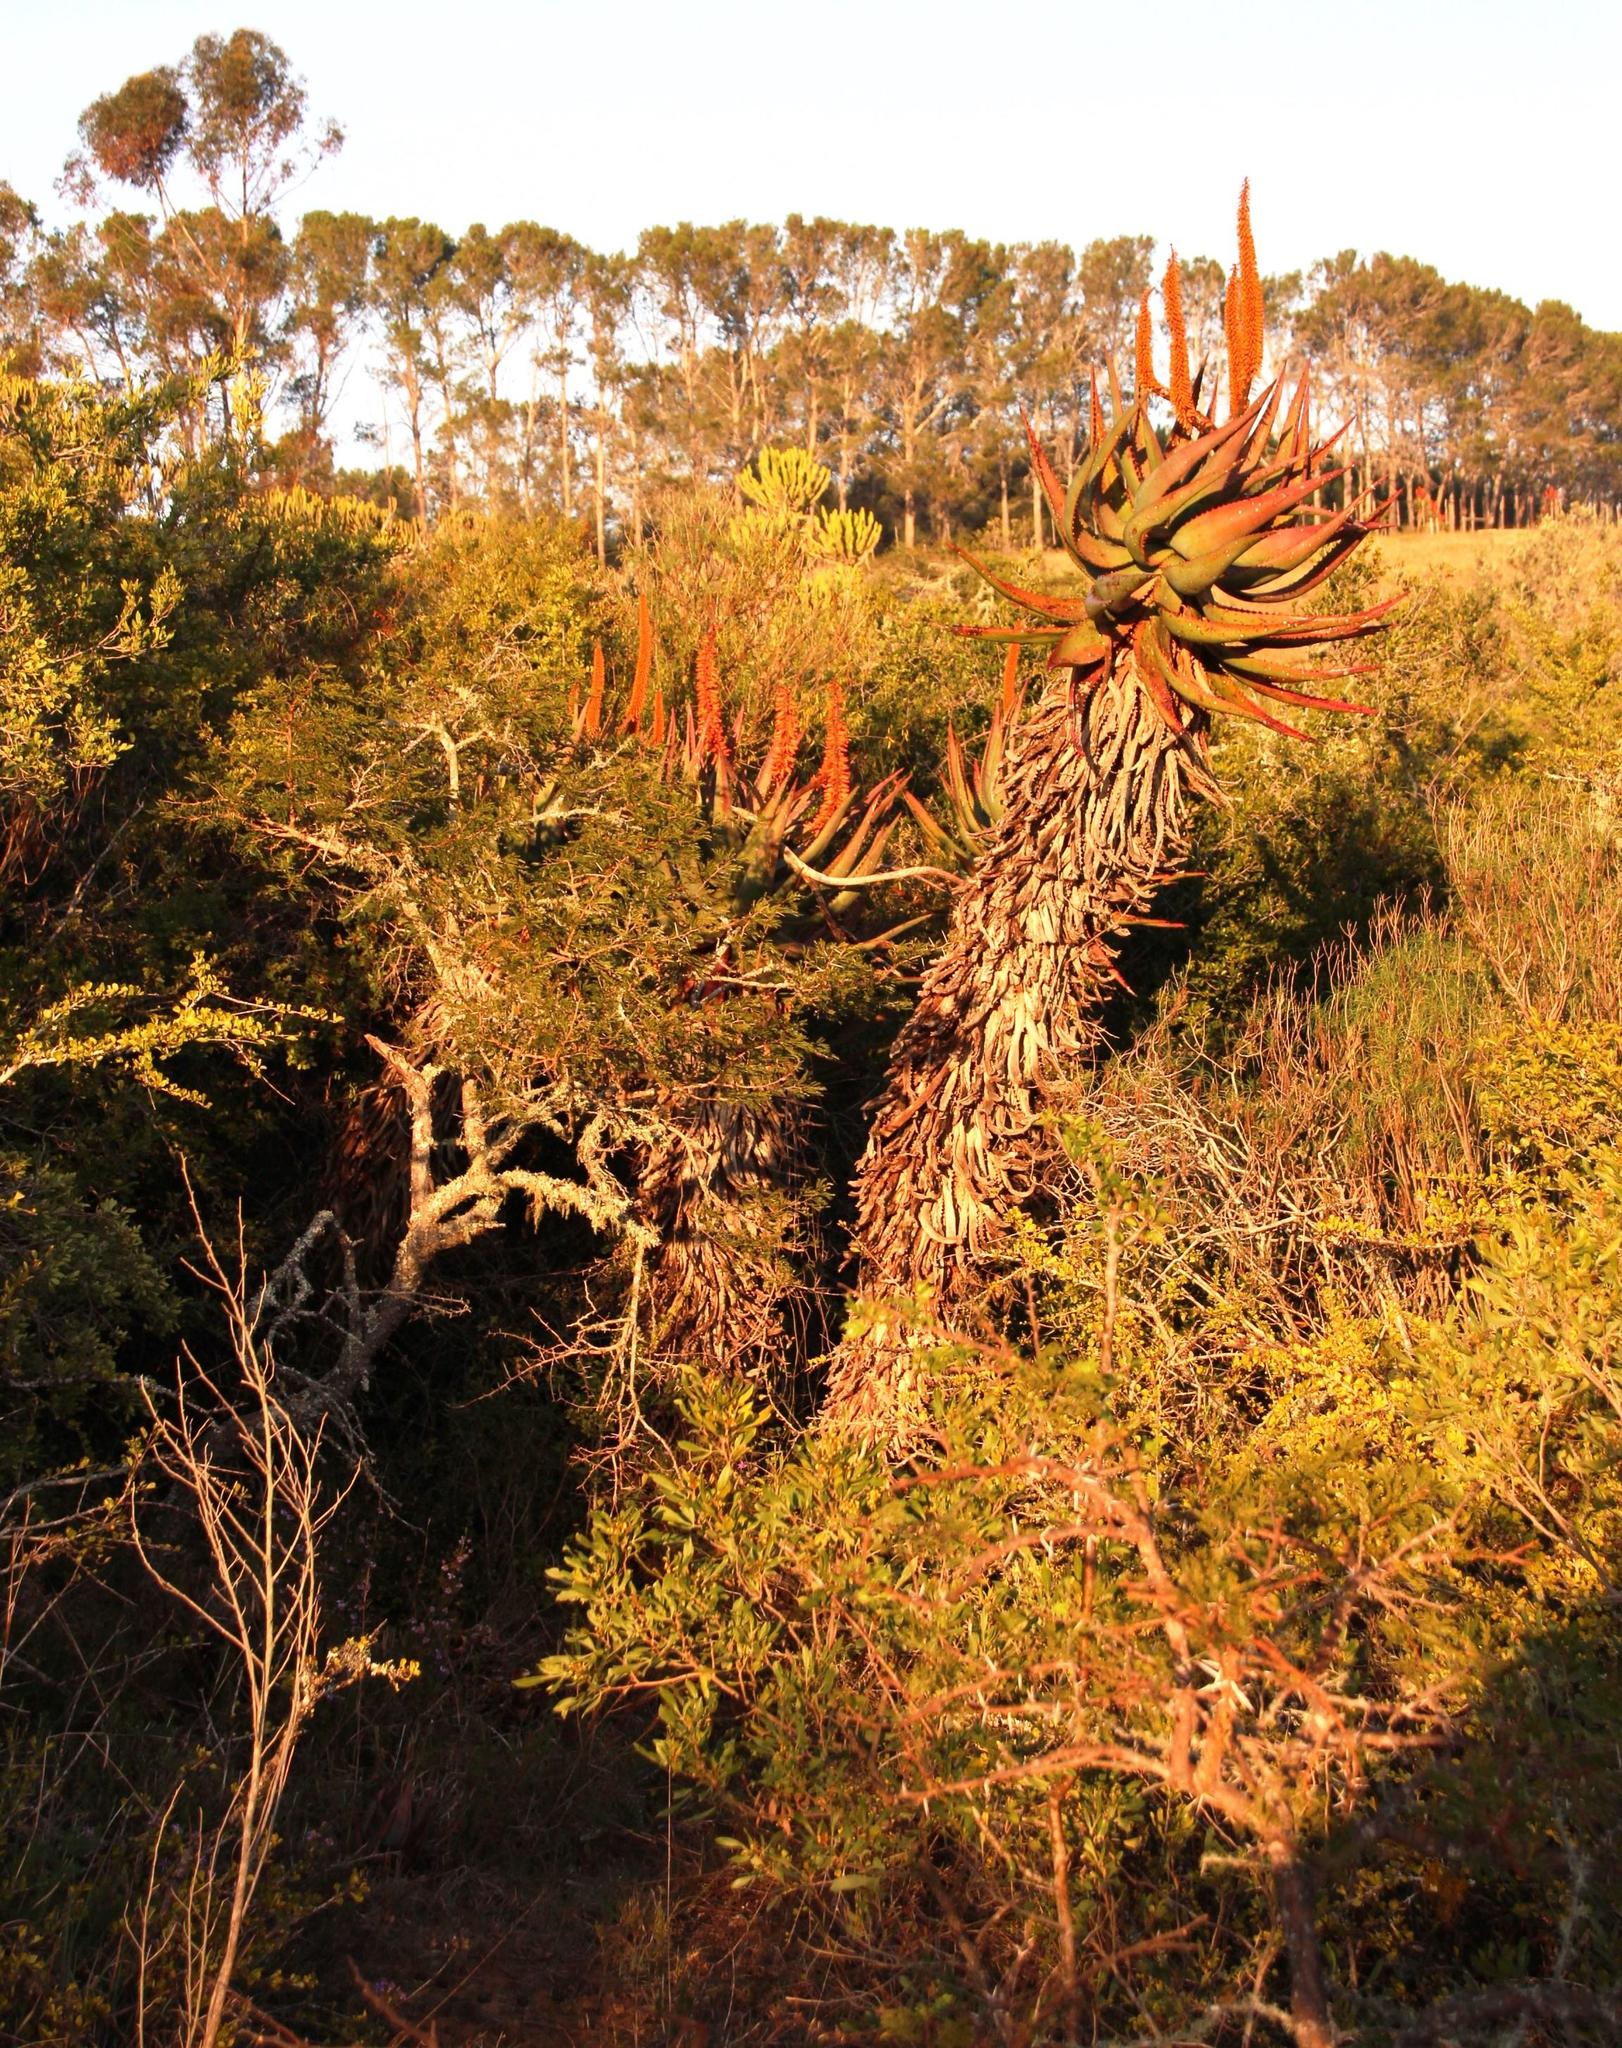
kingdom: Plantae
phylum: Tracheophyta
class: Liliopsida
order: Asparagales
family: Asphodelaceae
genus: Aloe
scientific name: Aloe ferox
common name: Bitter aloe
